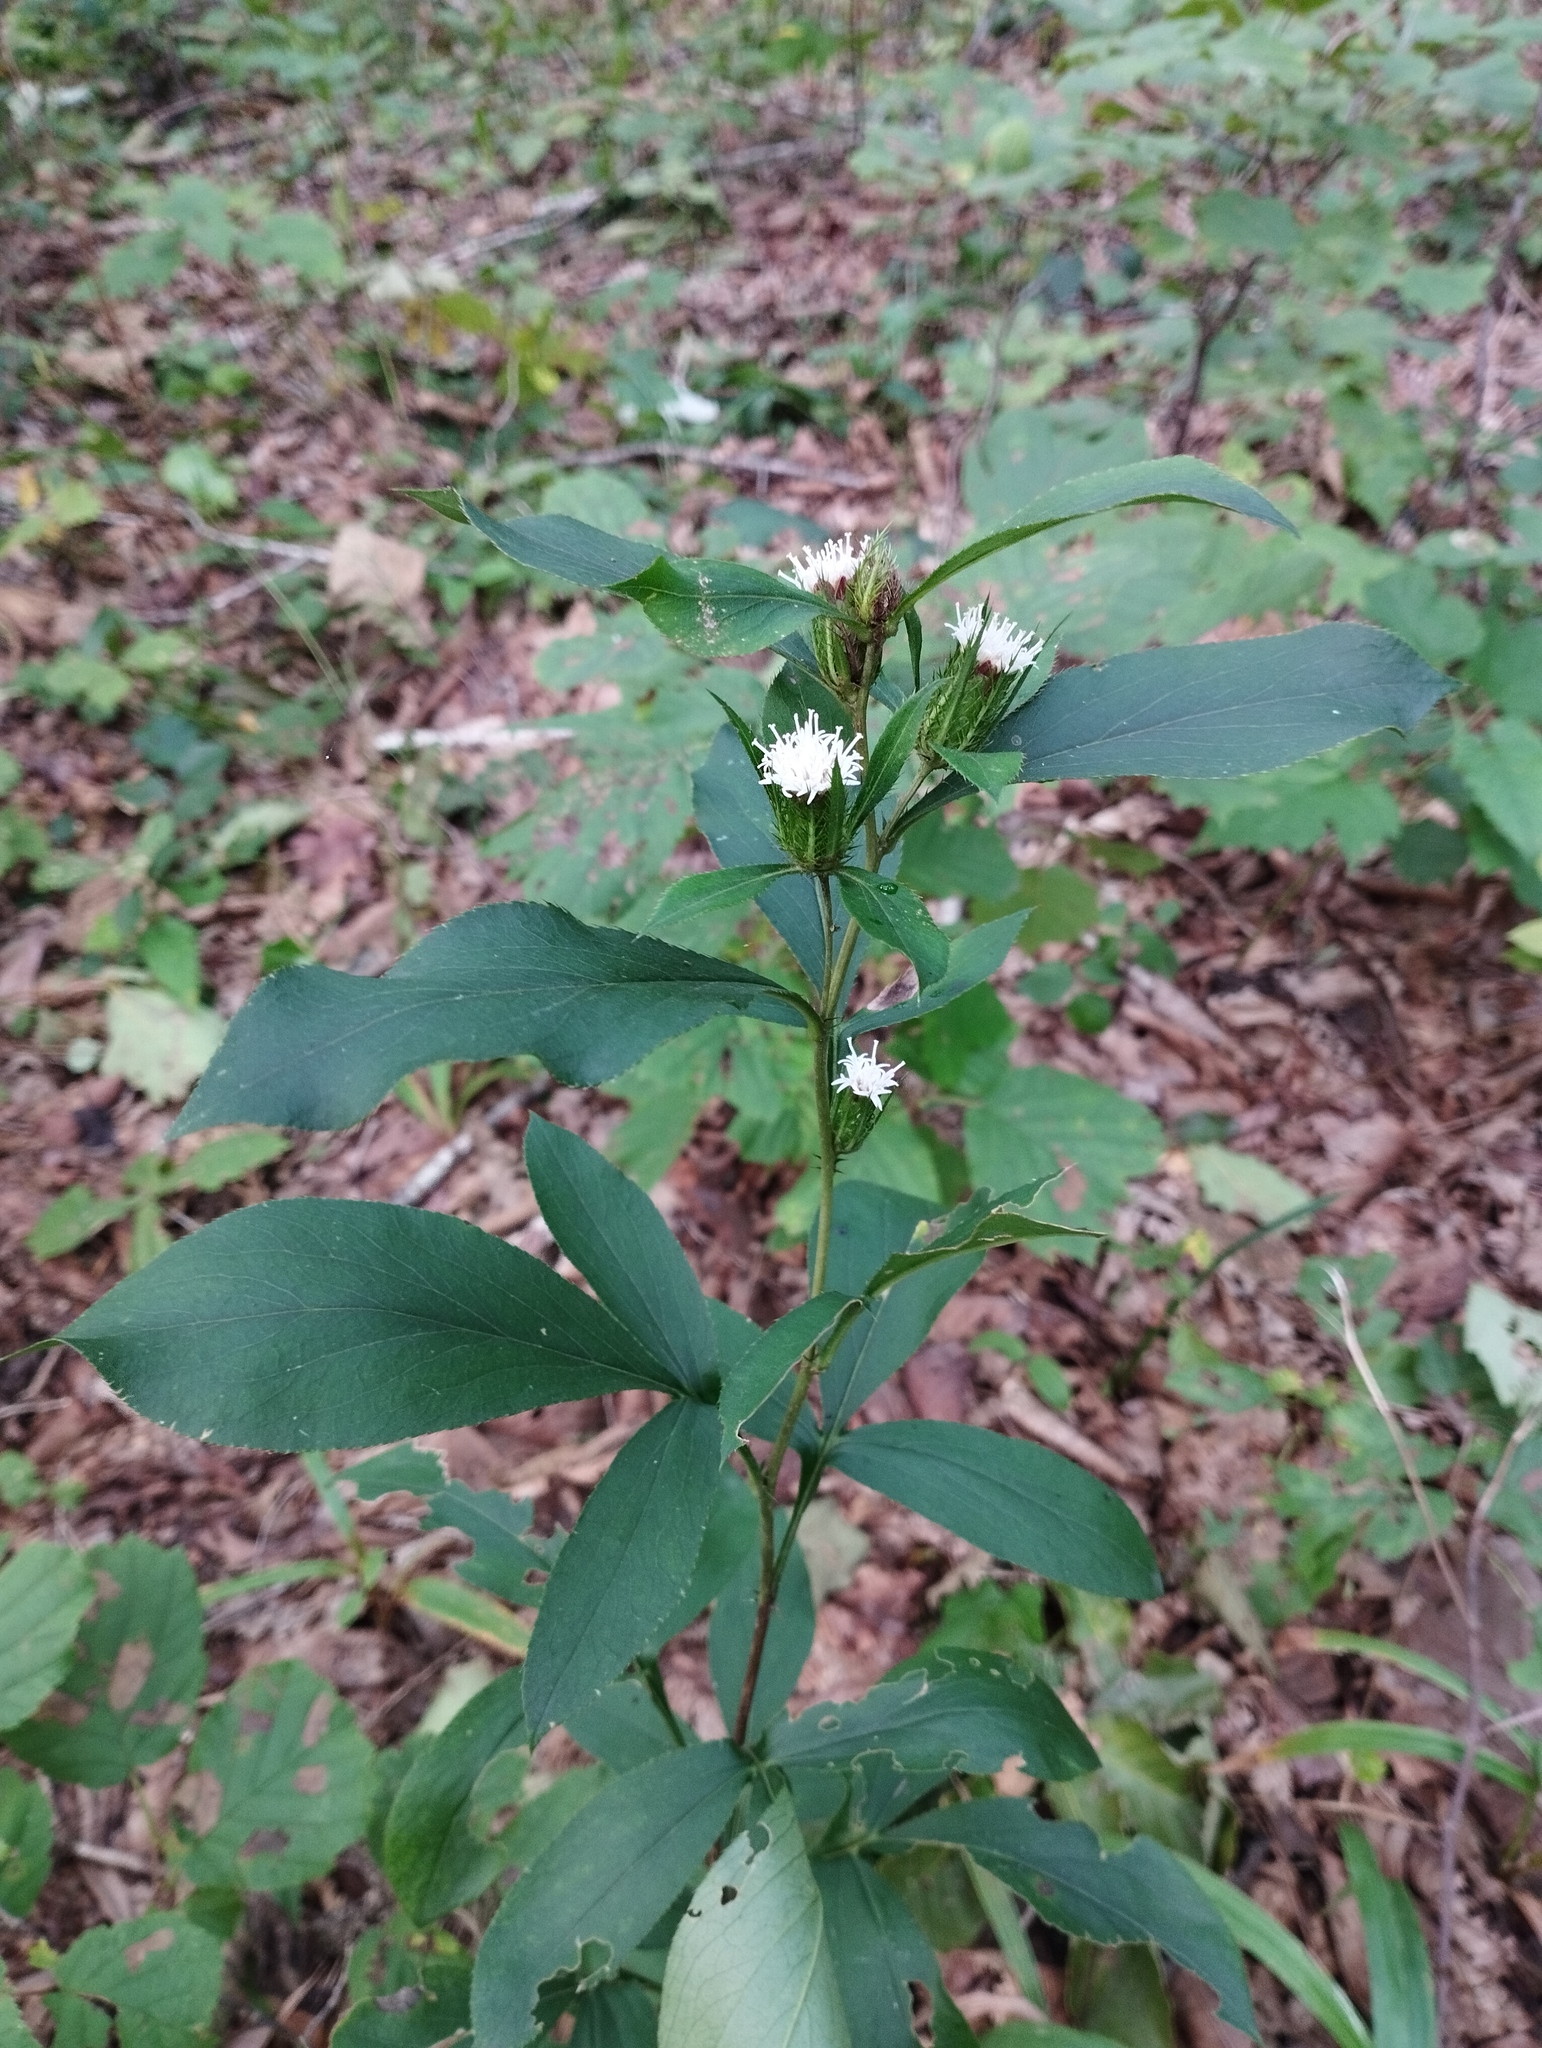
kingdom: Plantae
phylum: Tracheophyta
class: Magnoliopsida
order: Asterales
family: Asteraceae
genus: Atractylodes
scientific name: Atractylodes lancea
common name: Southern tsangshu
